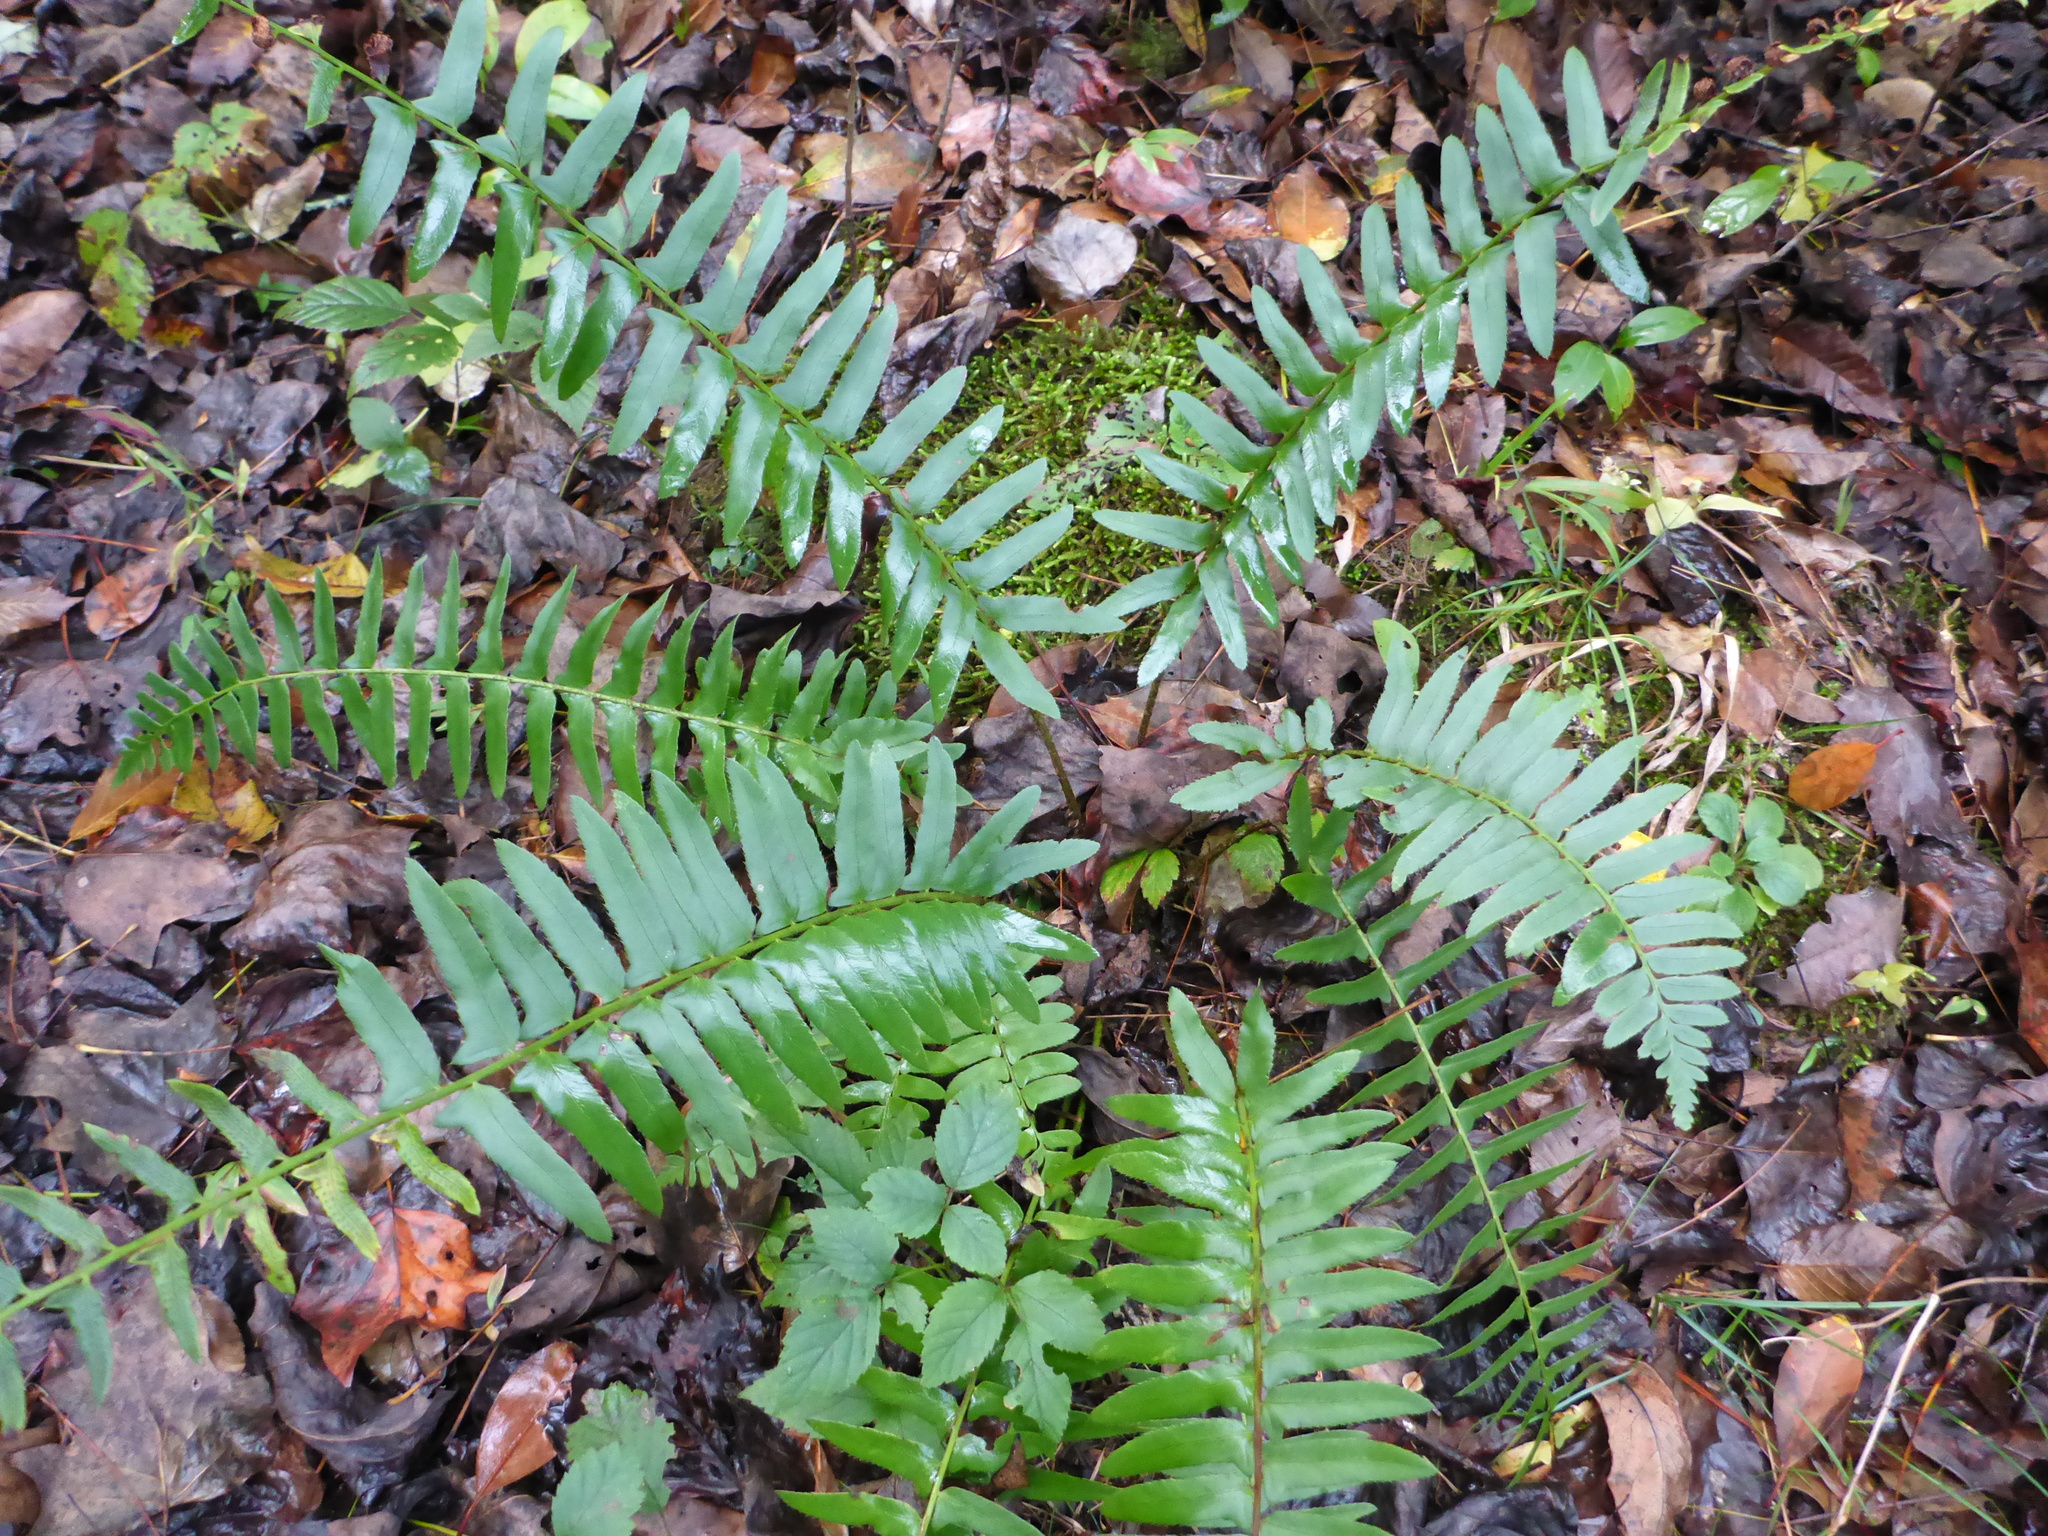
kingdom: Plantae
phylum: Tracheophyta
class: Polypodiopsida
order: Polypodiales
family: Dryopteridaceae
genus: Polystichum
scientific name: Polystichum acrostichoides
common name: Christmas fern
